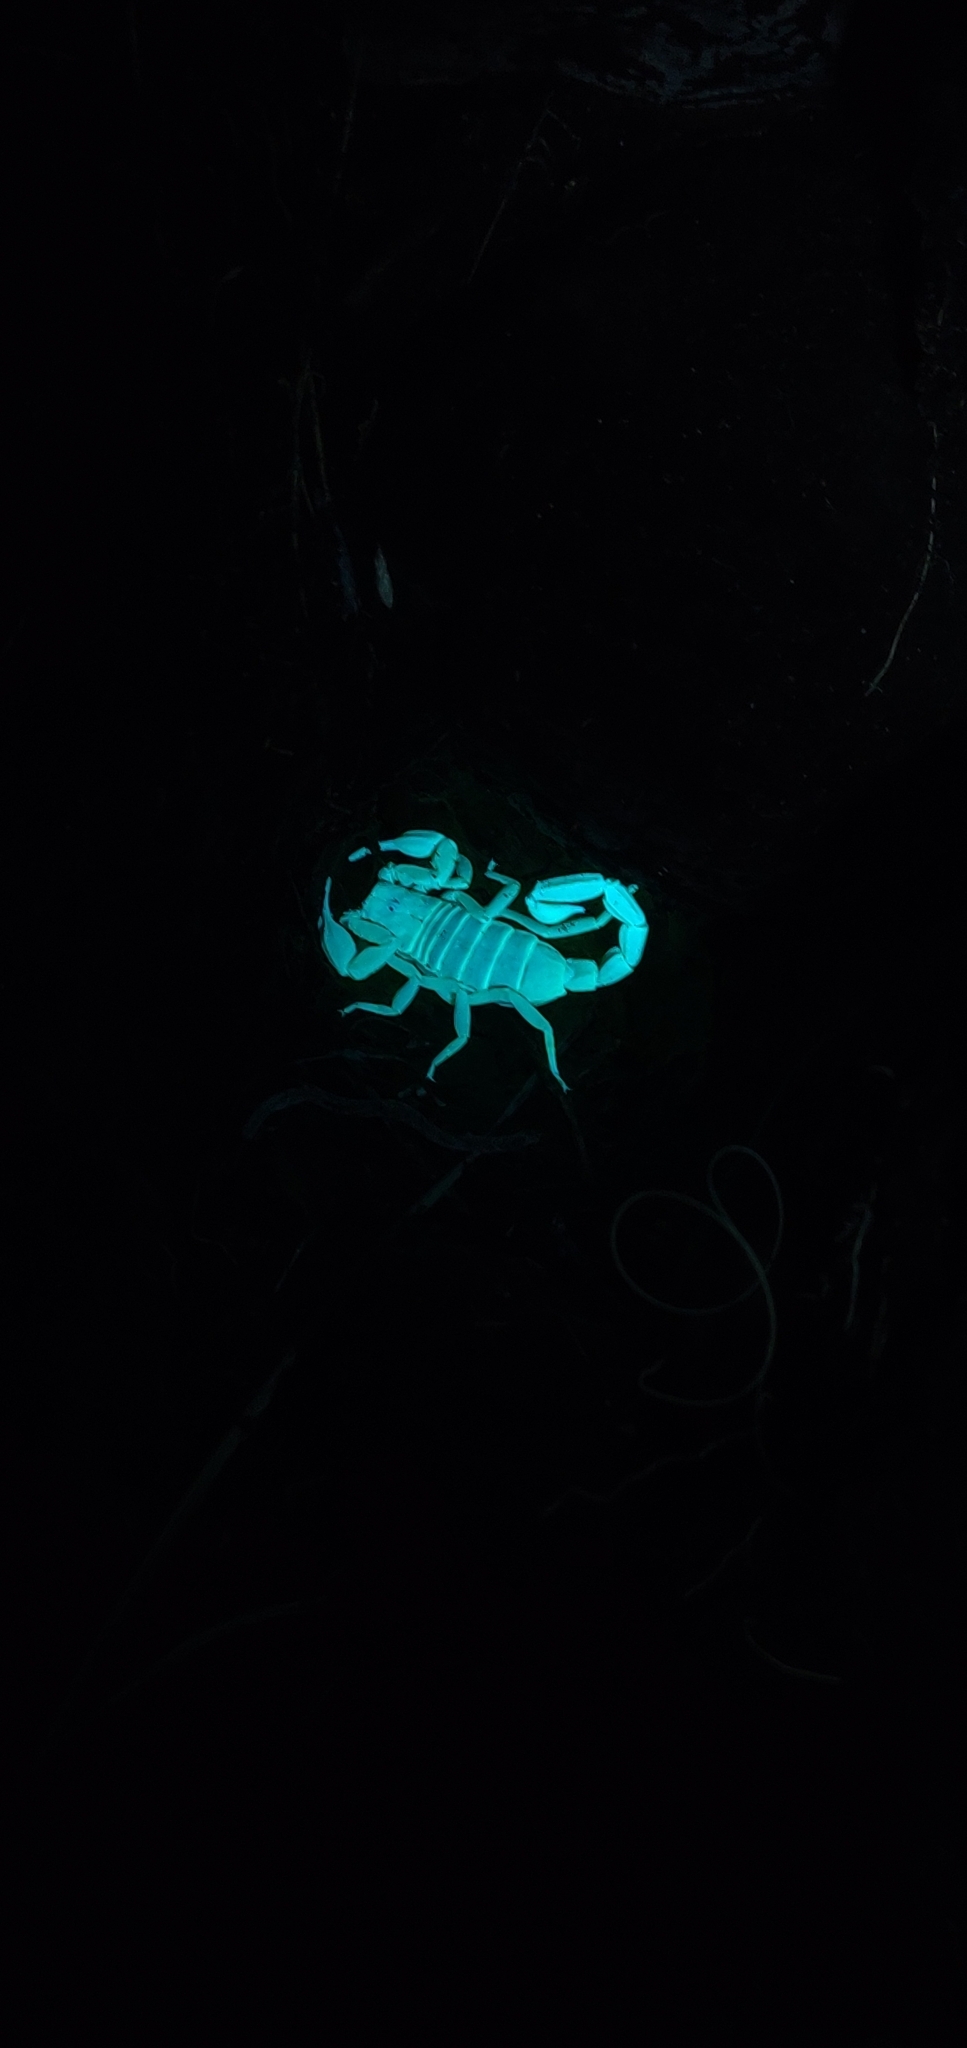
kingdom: Animalia
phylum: Arthropoda
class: Arachnida
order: Scorpiones
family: Vaejovidae
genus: Paruroctonus
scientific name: Paruroctonus boreus
